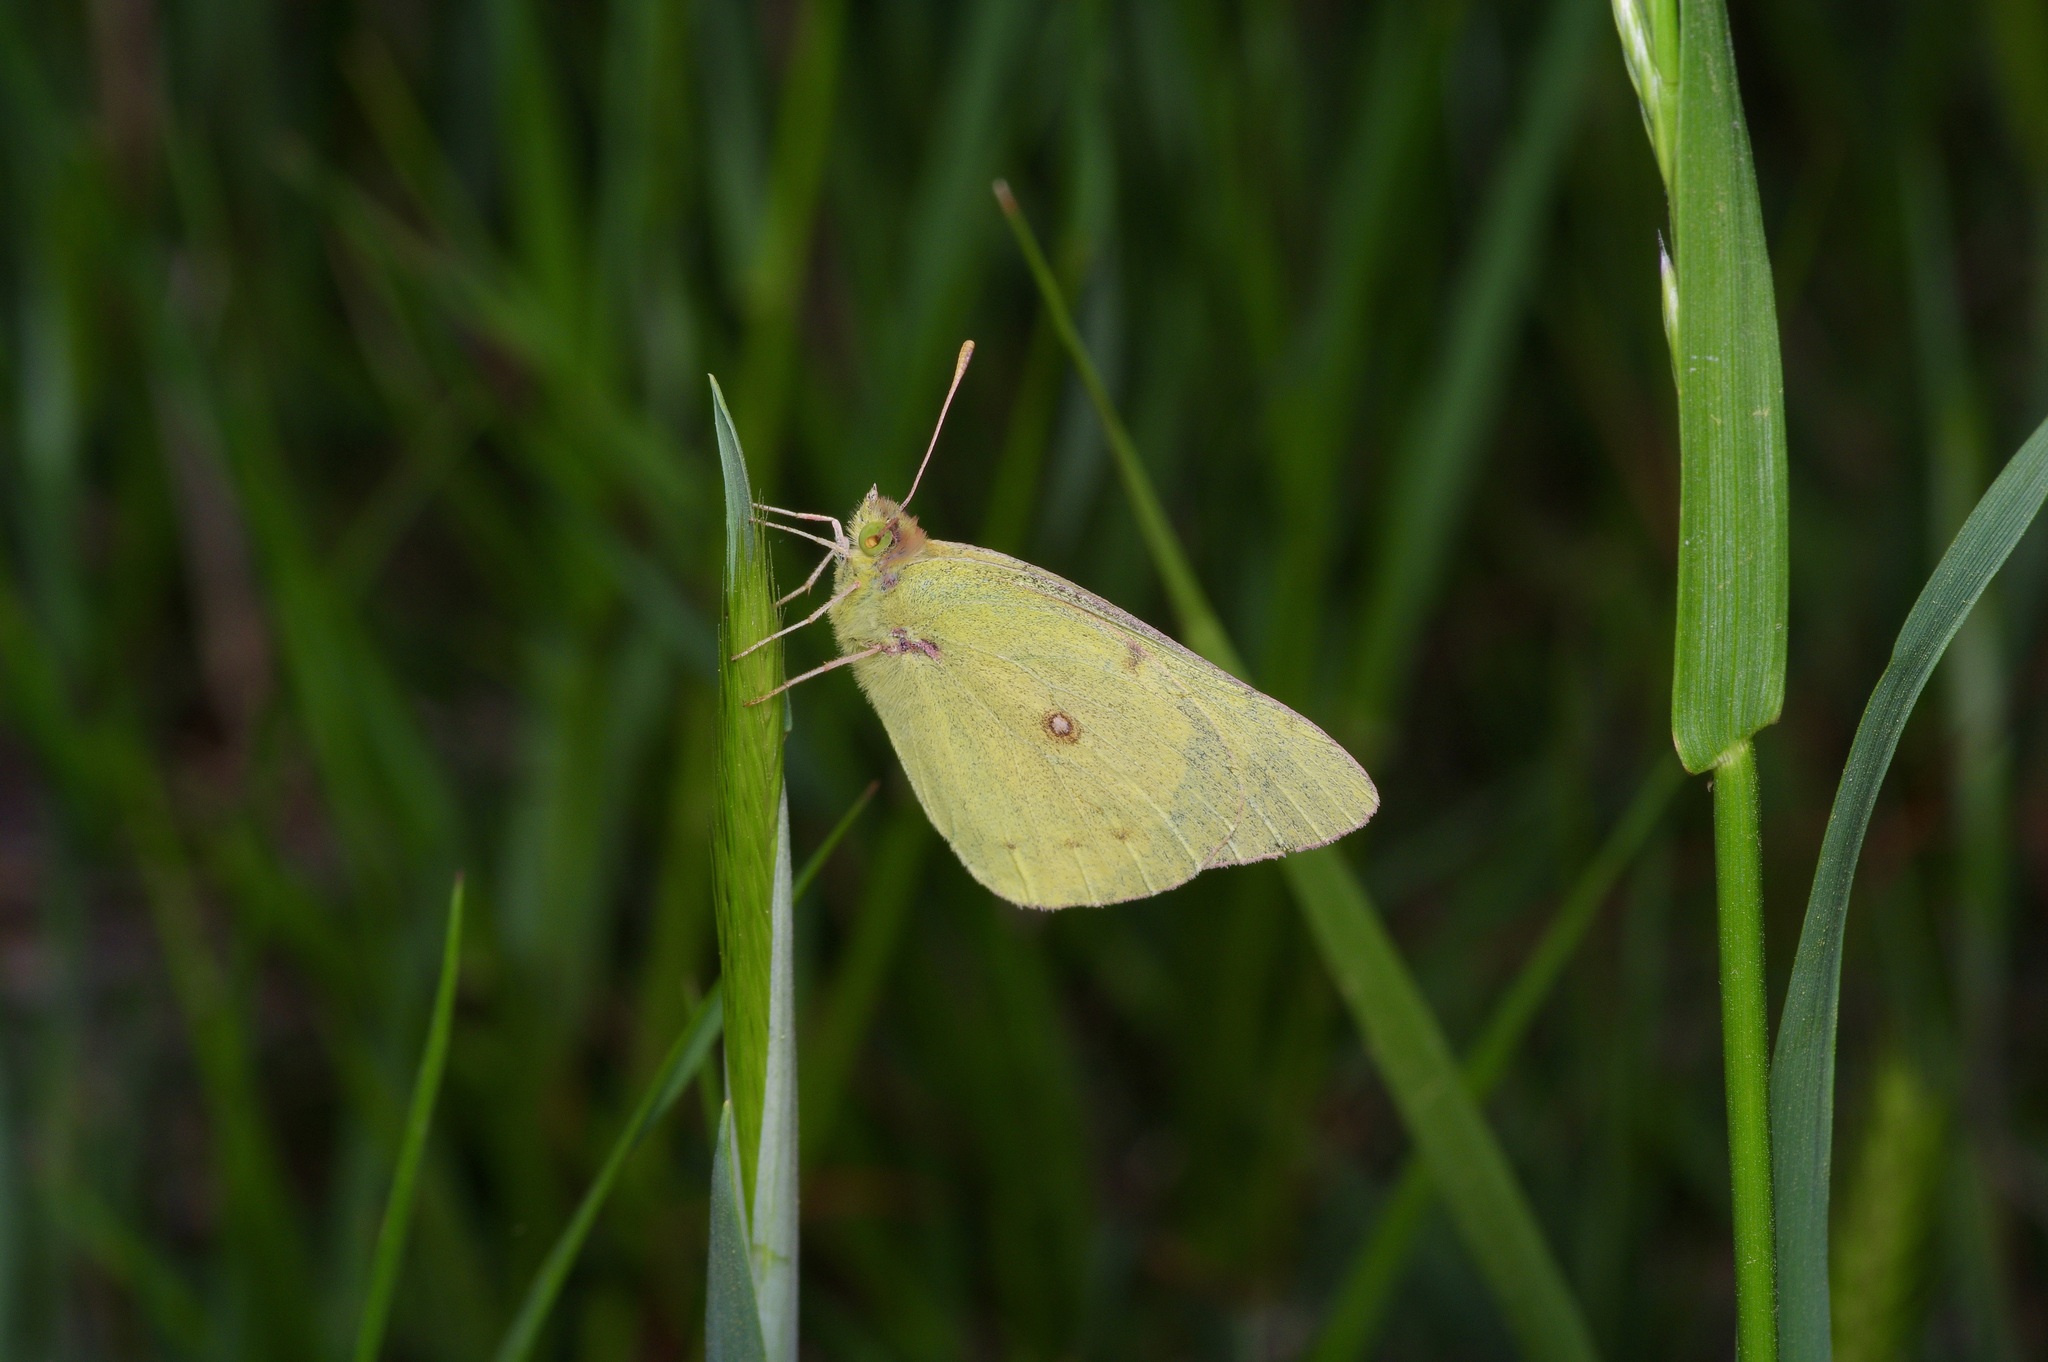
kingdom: Animalia
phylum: Arthropoda
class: Insecta
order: Lepidoptera
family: Pieridae
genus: Colias
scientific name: Colias eurytheme
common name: Alfalfa butterfly
